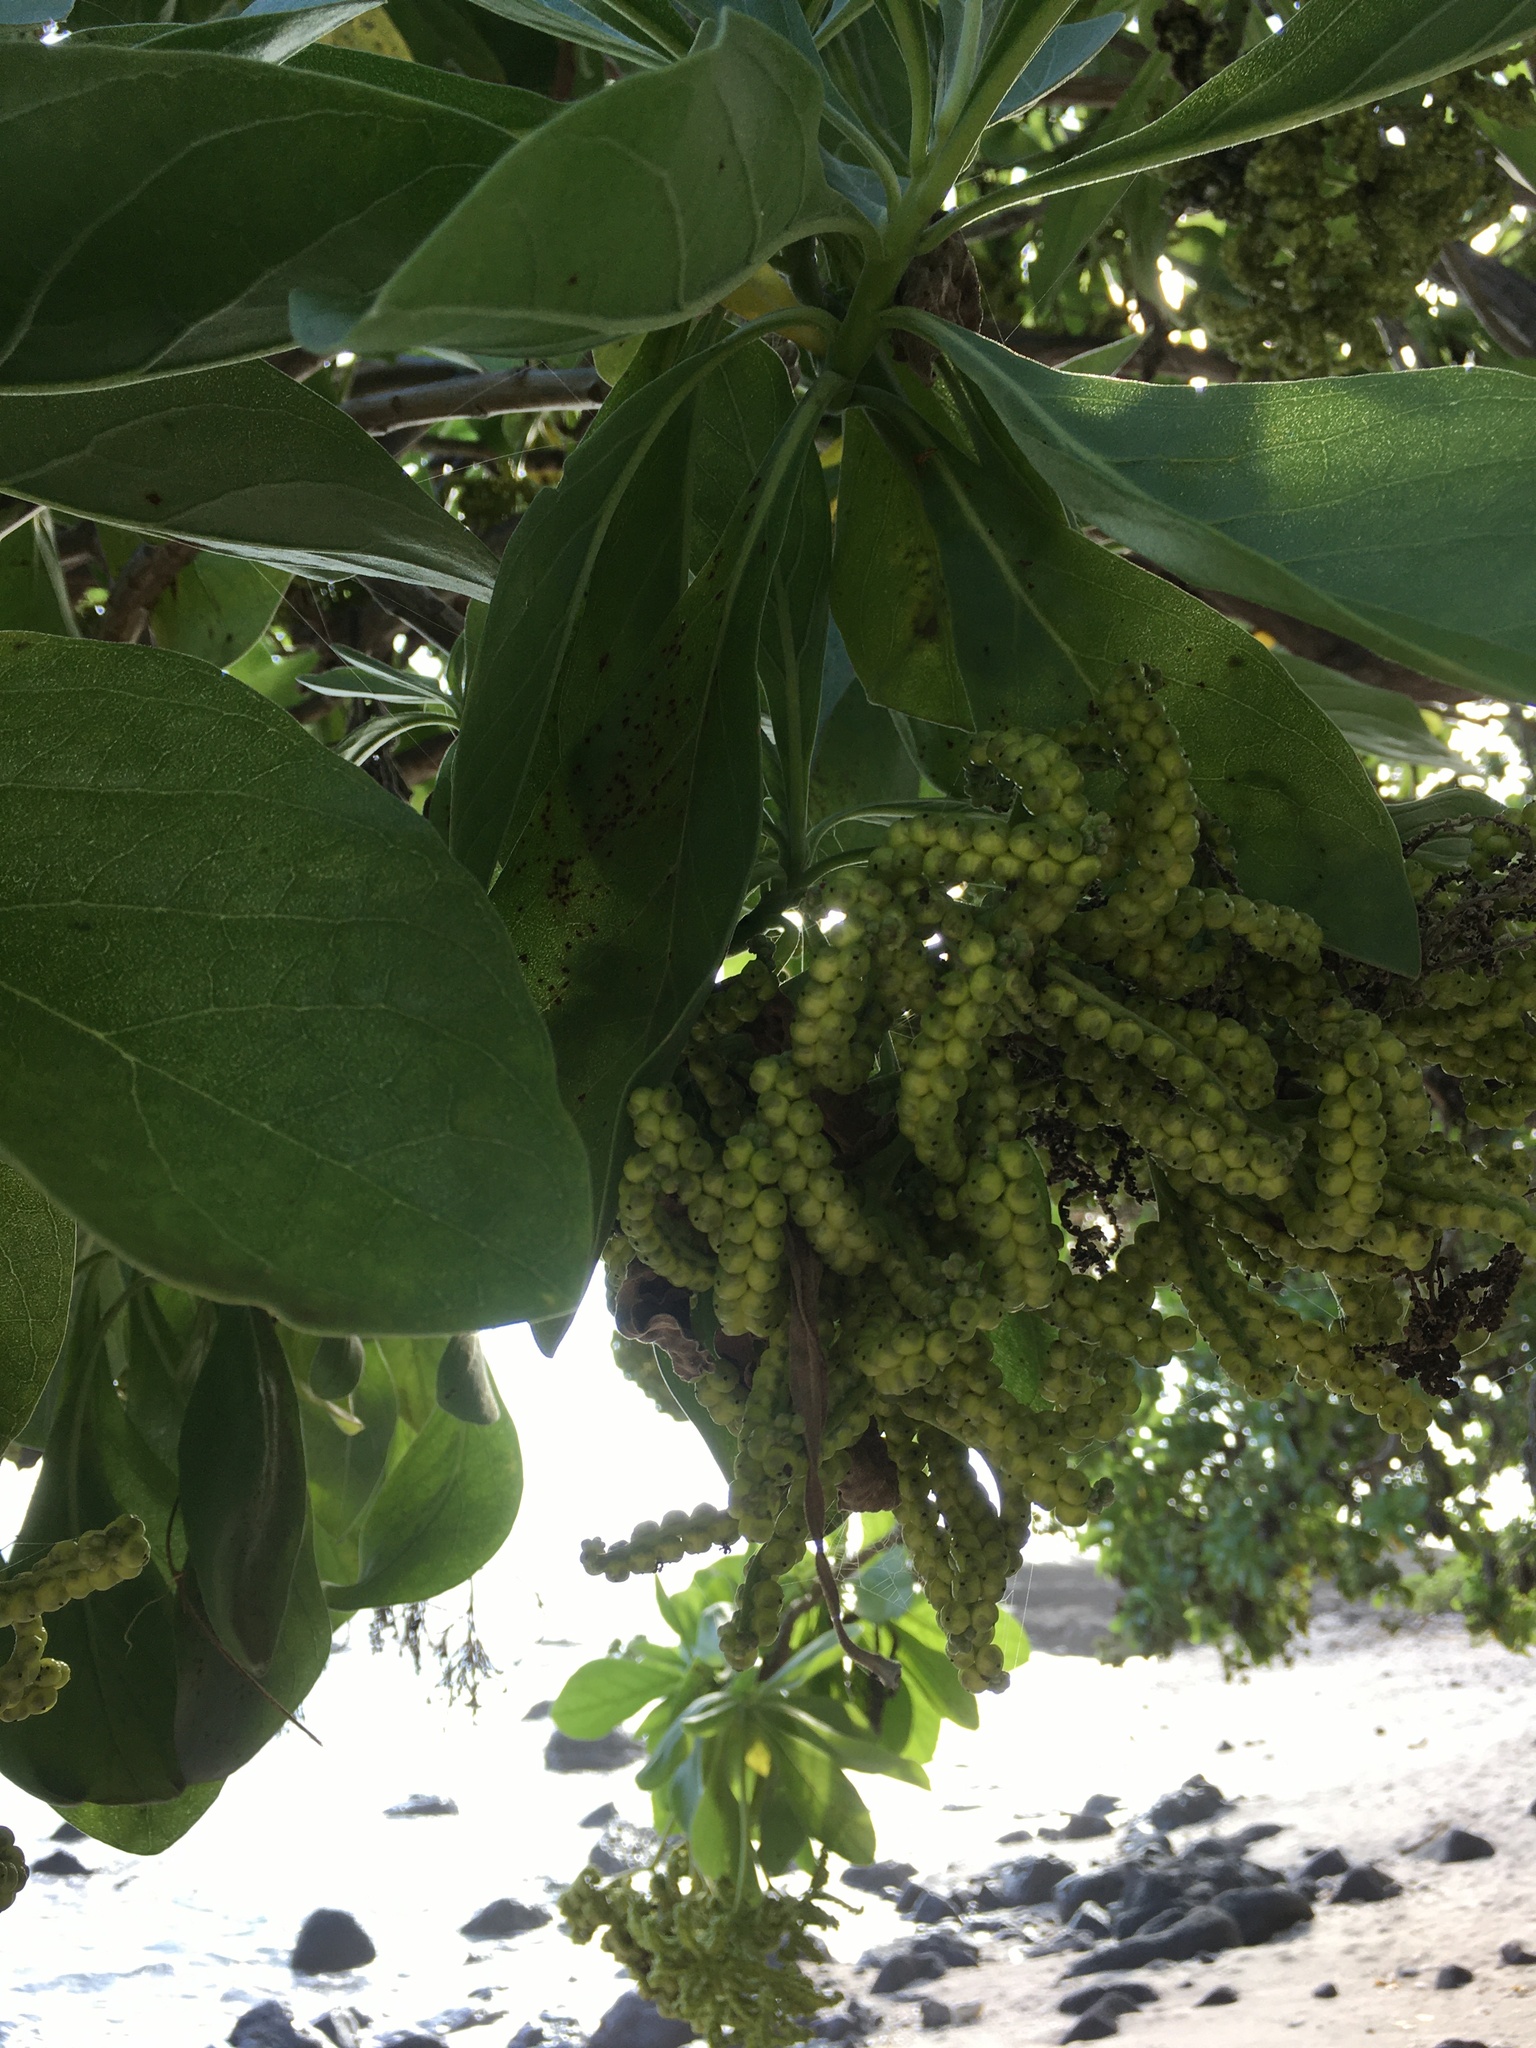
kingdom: Plantae
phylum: Tracheophyta
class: Magnoliopsida
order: Boraginales
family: Heliotropiaceae
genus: Heliotropium
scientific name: Heliotropium velutinum
